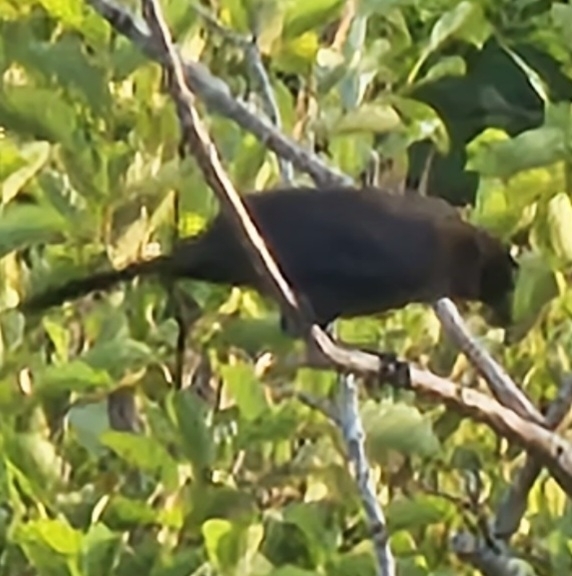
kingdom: Animalia
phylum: Chordata
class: Aves
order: Passeriformes
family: Icteridae
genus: Quiscalus
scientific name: Quiscalus quiscula
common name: Common grackle
